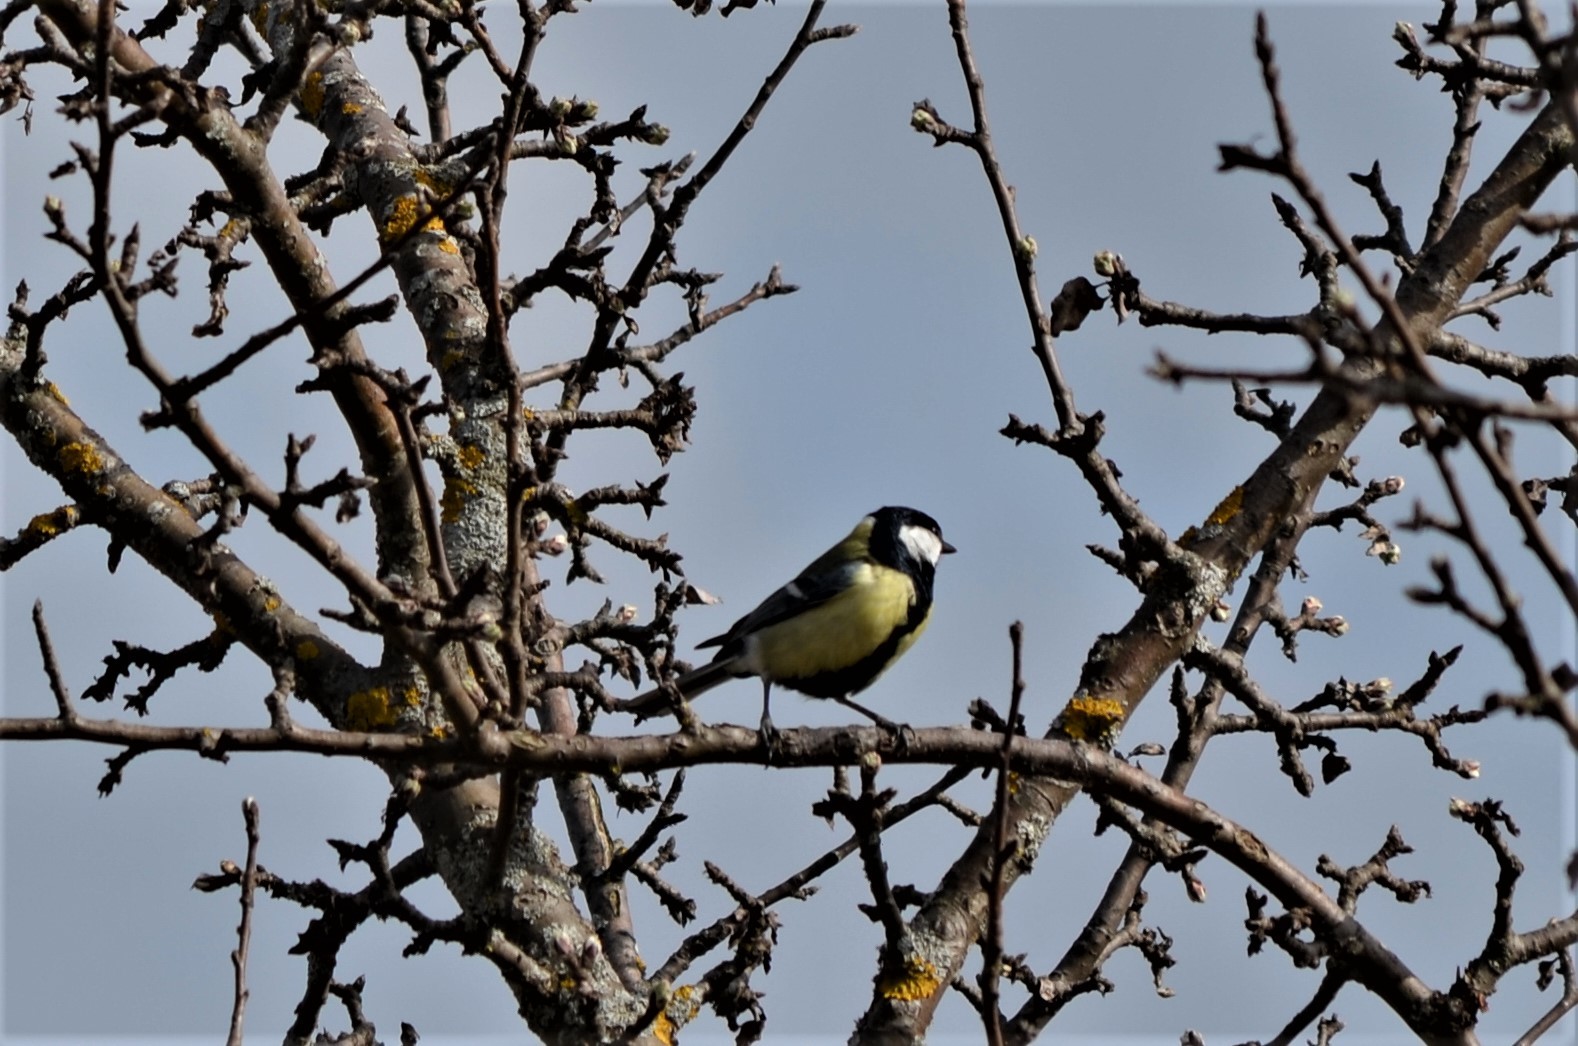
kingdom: Animalia
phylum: Chordata
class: Aves
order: Passeriformes
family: Paridae
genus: Parus
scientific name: Parus major
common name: Great tit
